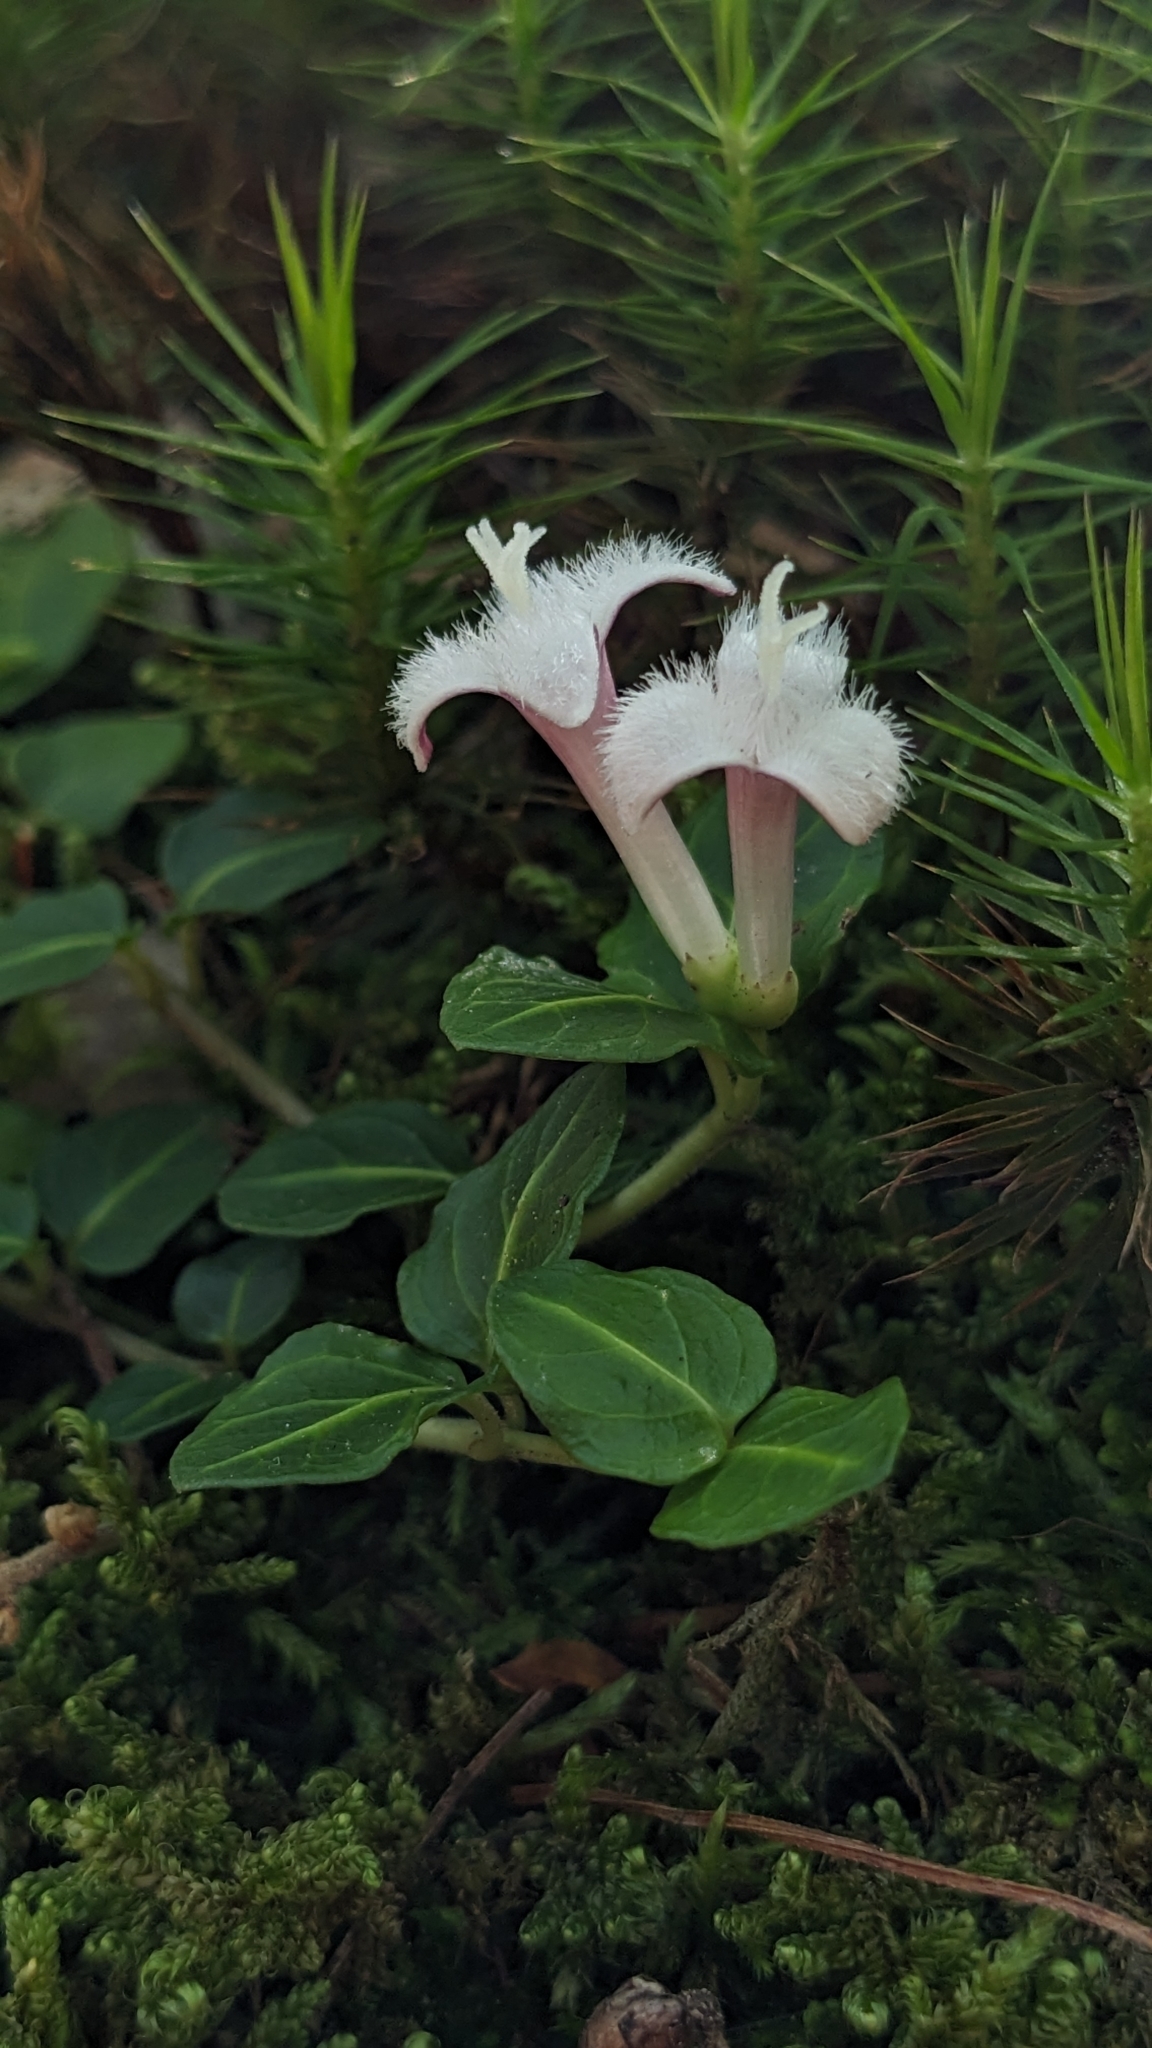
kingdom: Plantae
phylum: Tracheophyta
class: Magnoliopsida
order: Gentianales
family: Rubiaceae
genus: Mitchella
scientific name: Mitchella repens
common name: Partridge-berry
